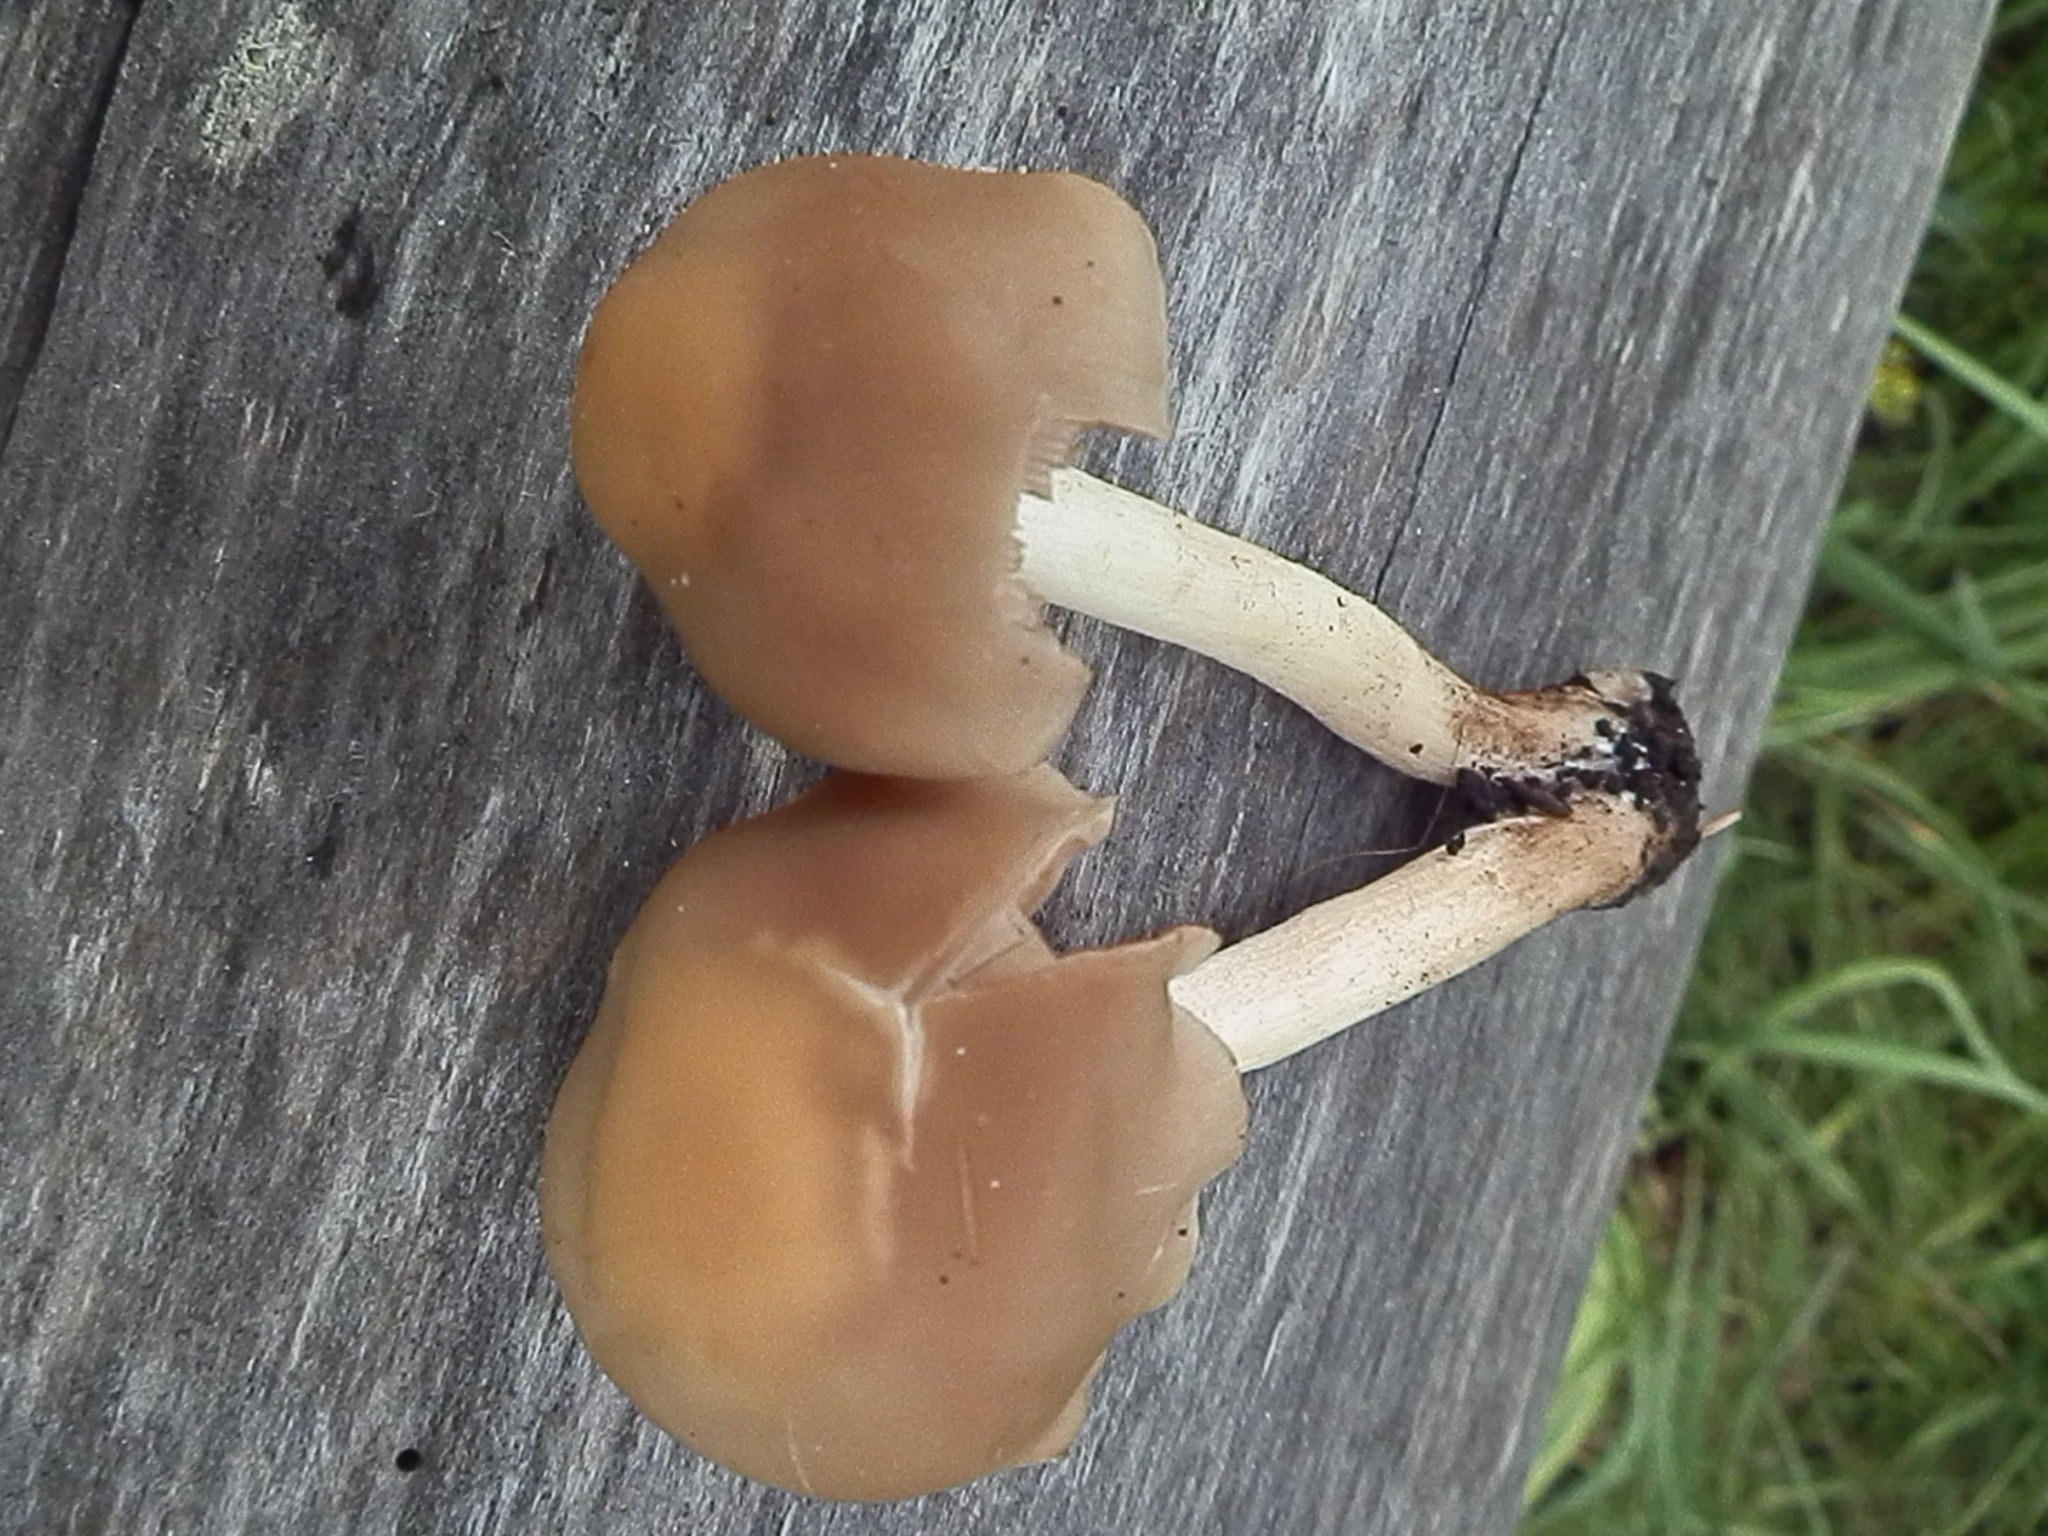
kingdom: Fungi
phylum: Basidiomycota
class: Agaricomycetes
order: Agaricales
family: Psathyrellaceae
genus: Homophron
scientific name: Homophron spadiceum
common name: Chestnut brittlestem
